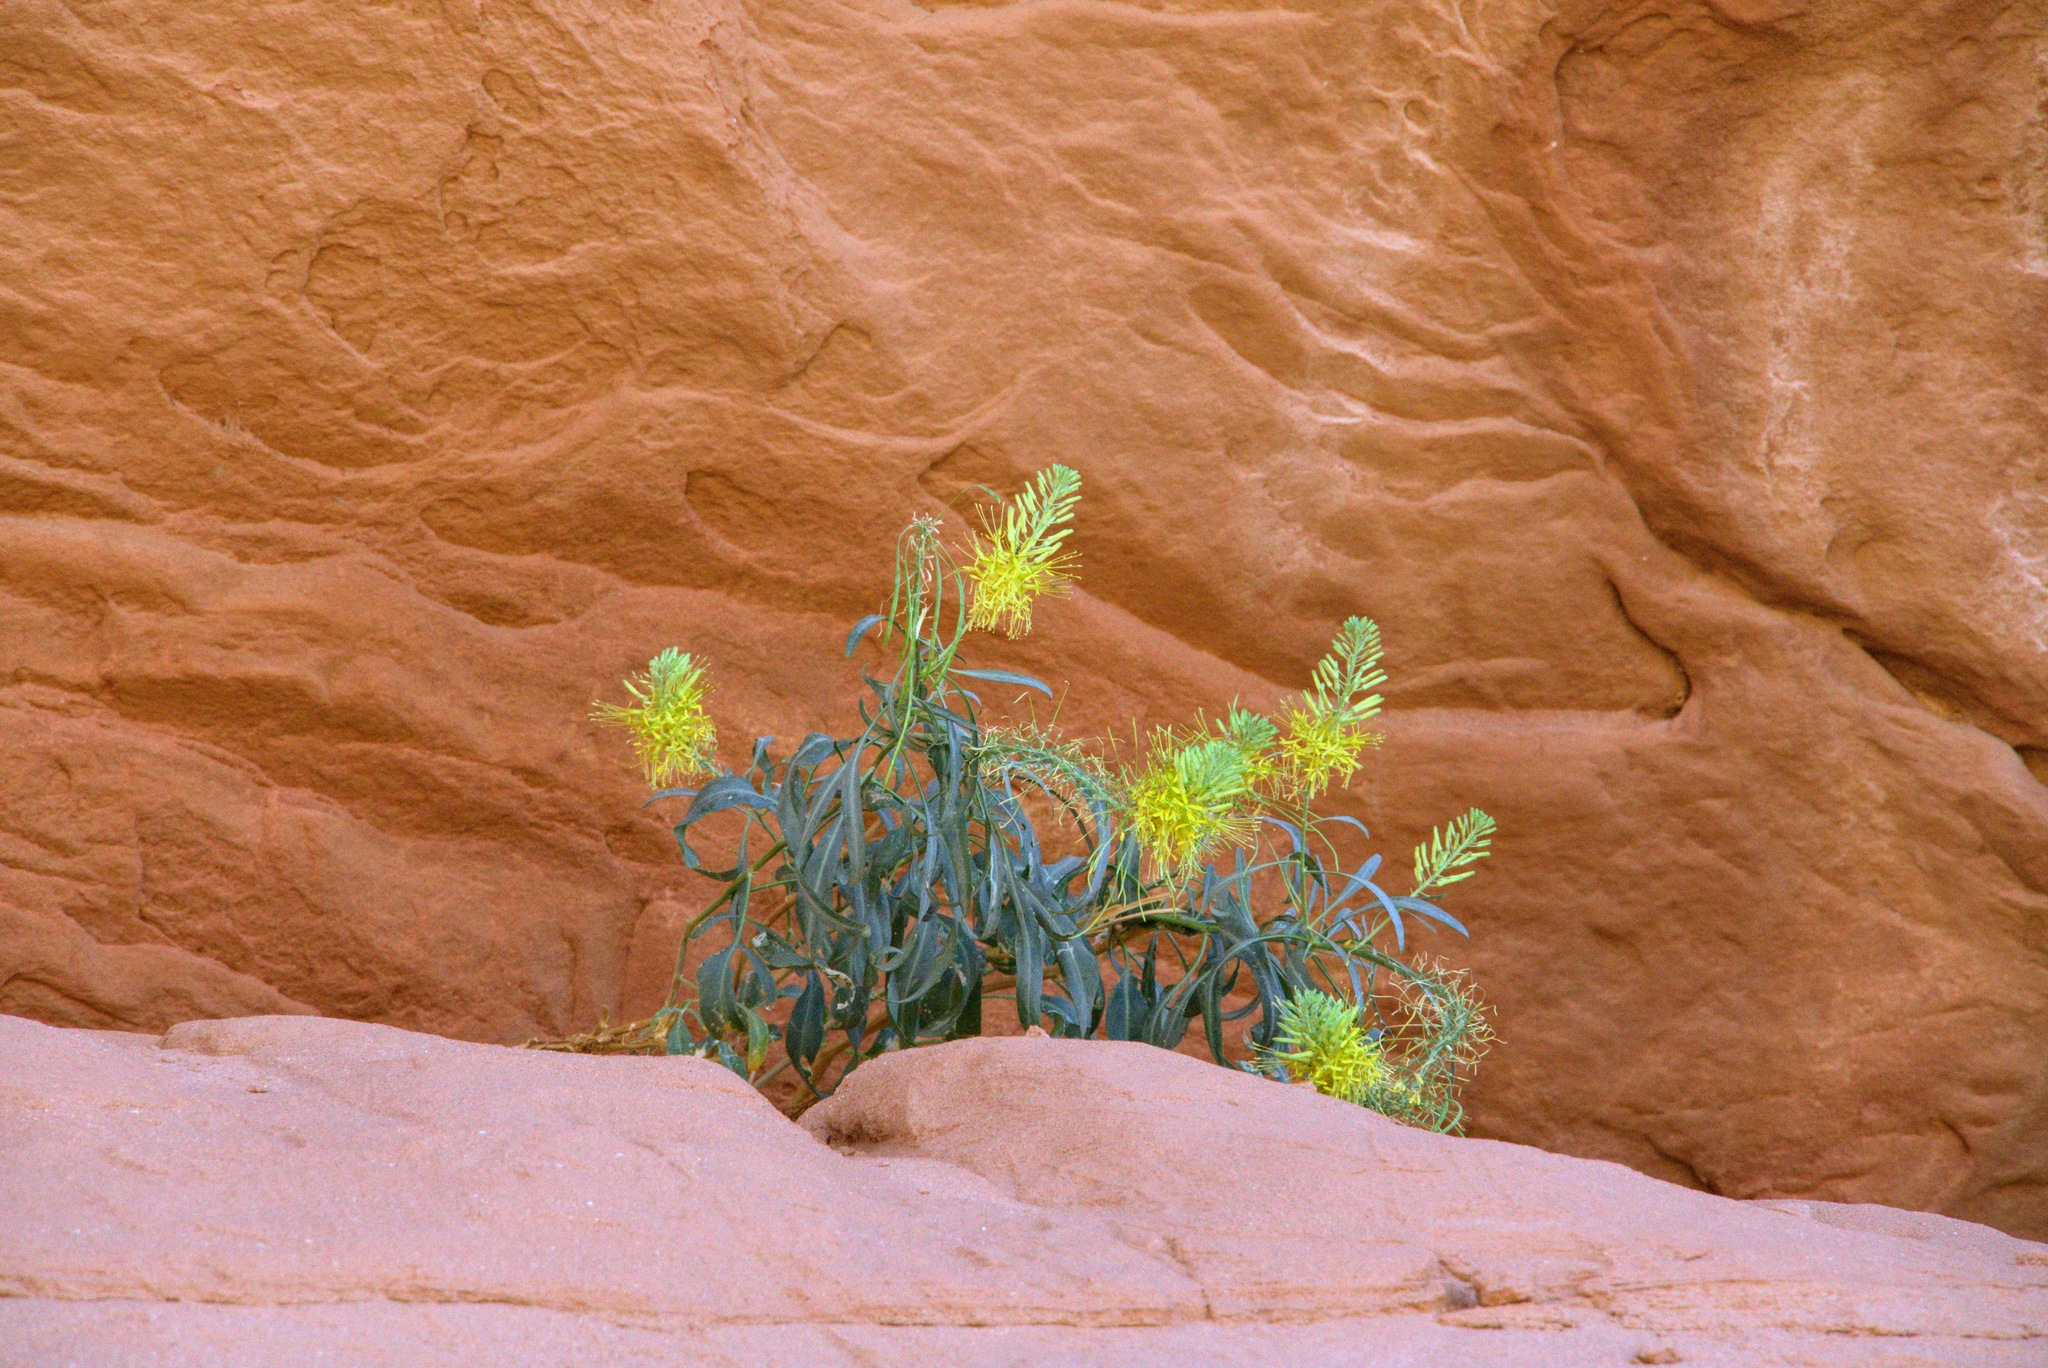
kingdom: Plantae
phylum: Tracheophyta
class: Magnoliopsida
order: Brassicales
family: Brassicaceae
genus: Stanleya
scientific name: Stanleya pinnata
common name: Prince's-plume
